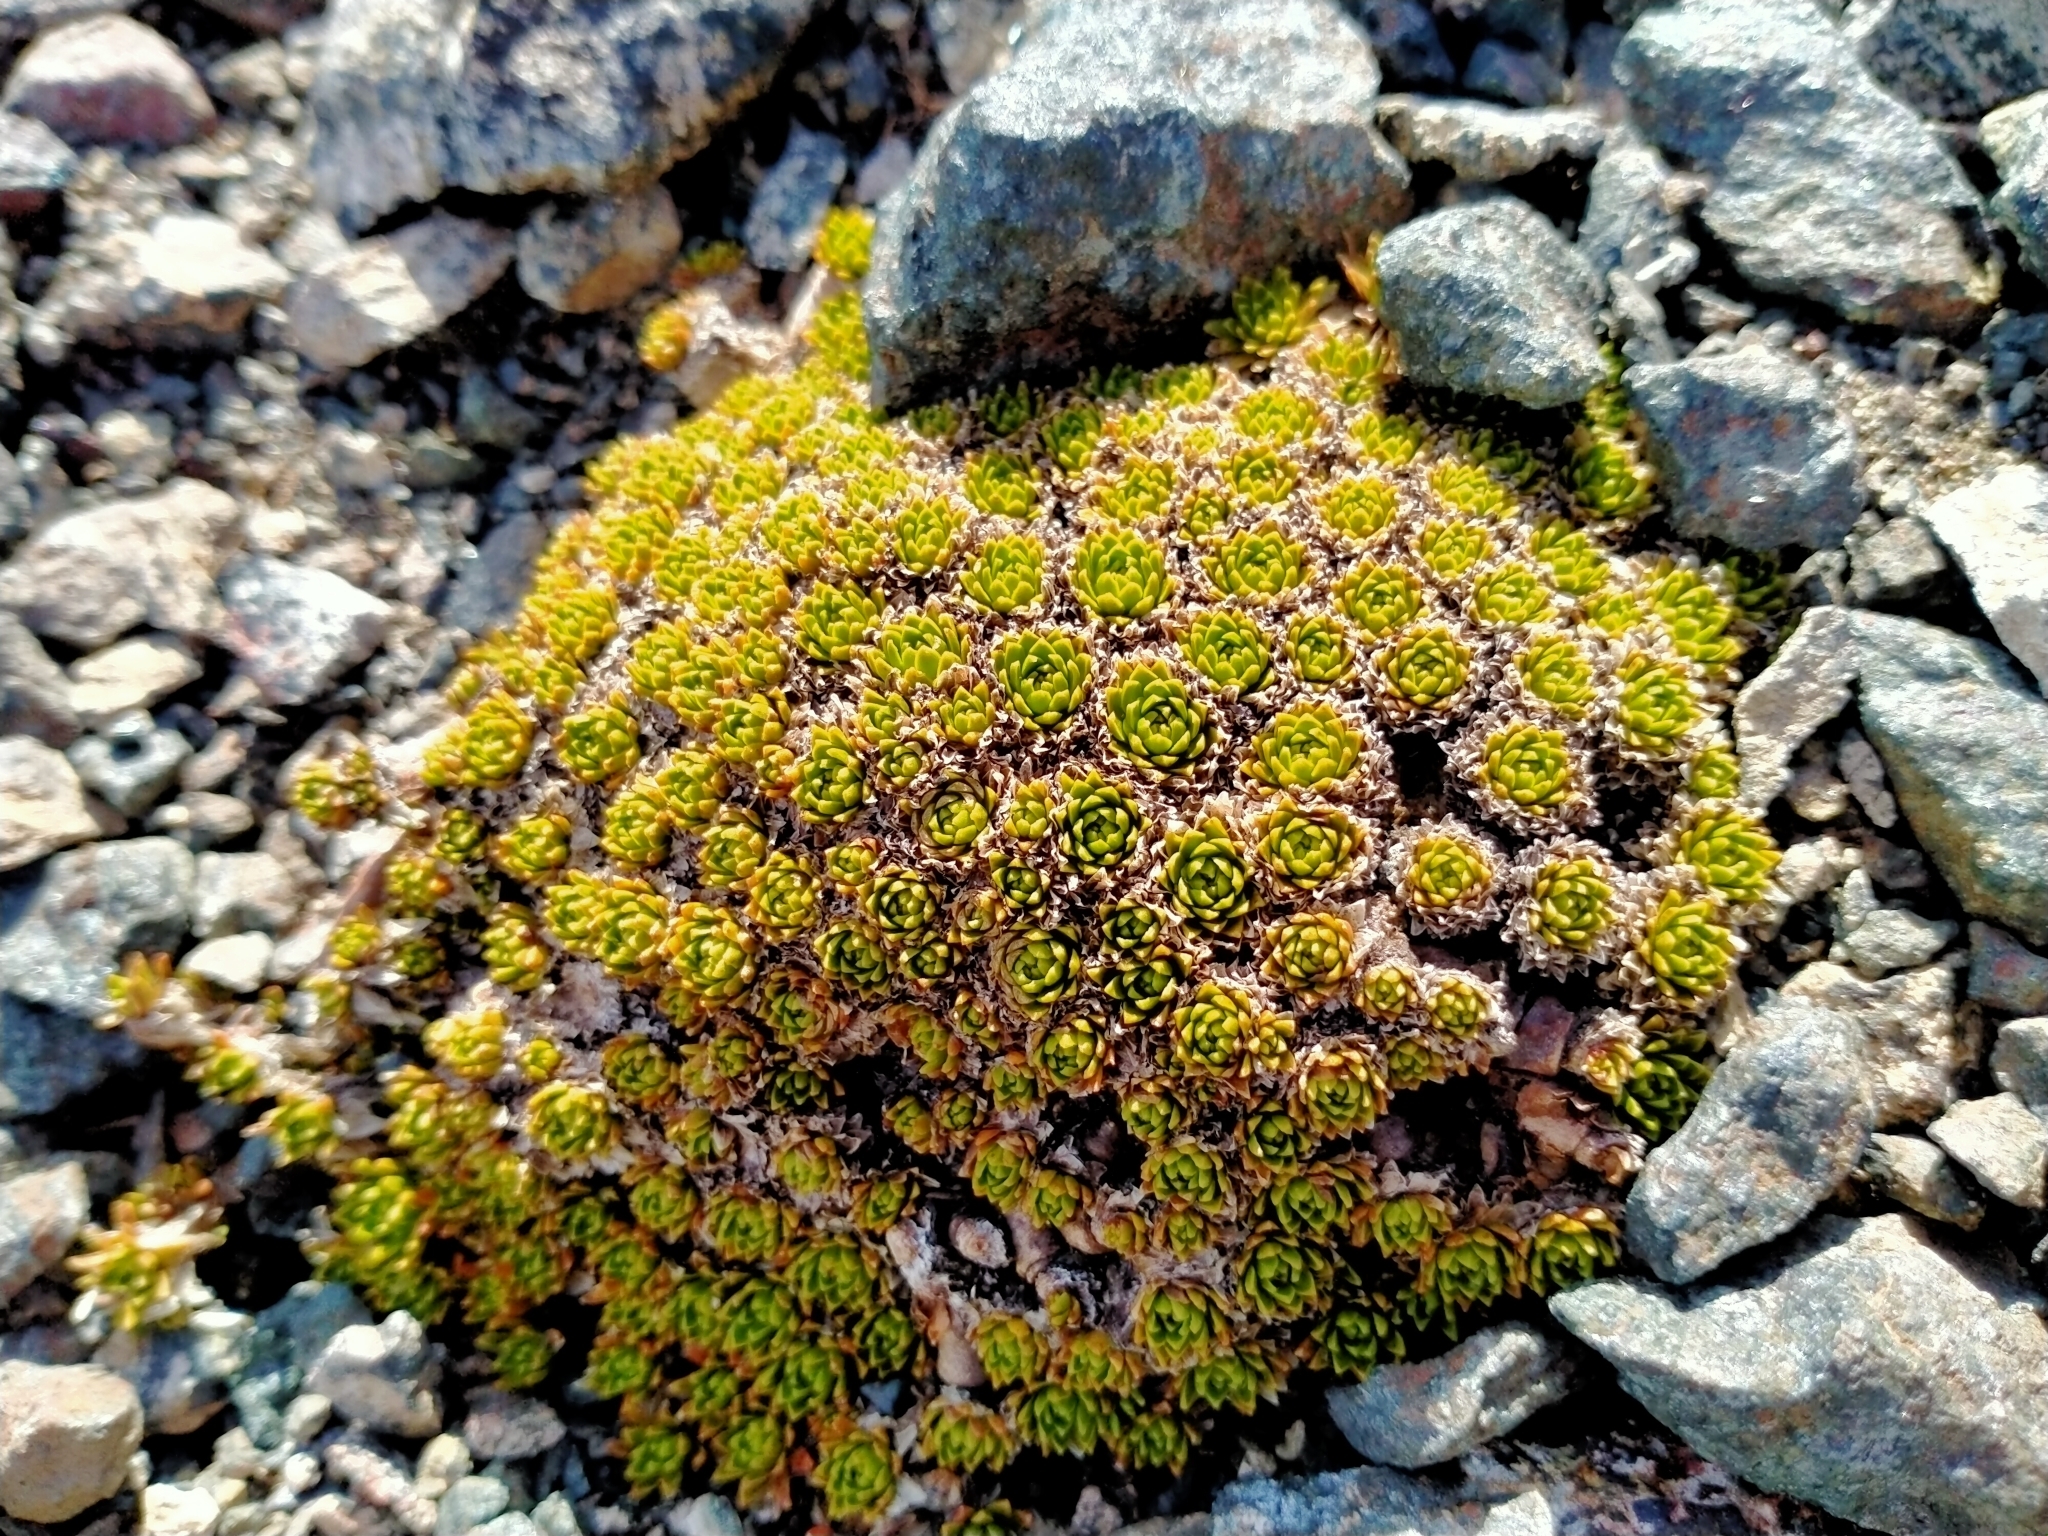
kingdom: Plantae
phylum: Tracheophyta
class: Magnoliopsida
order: Caryophyllales
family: Montiaceae
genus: Hectorella
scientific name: Hectorella caespitosa
